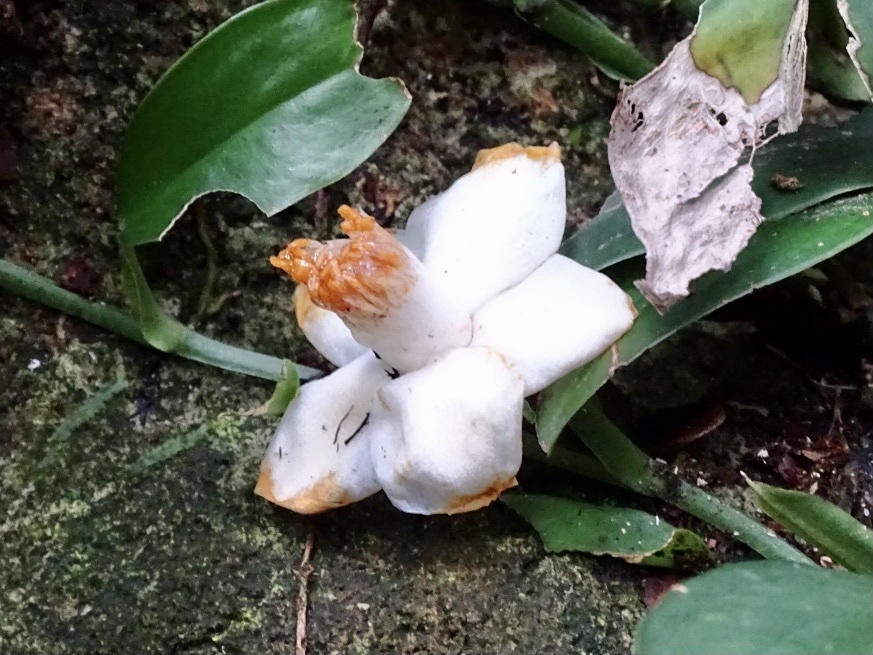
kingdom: Plantae
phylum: Tracheophyta
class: Magnoliopsida
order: Ericales
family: Theaceae
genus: Camellia
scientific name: Camellia caudata
